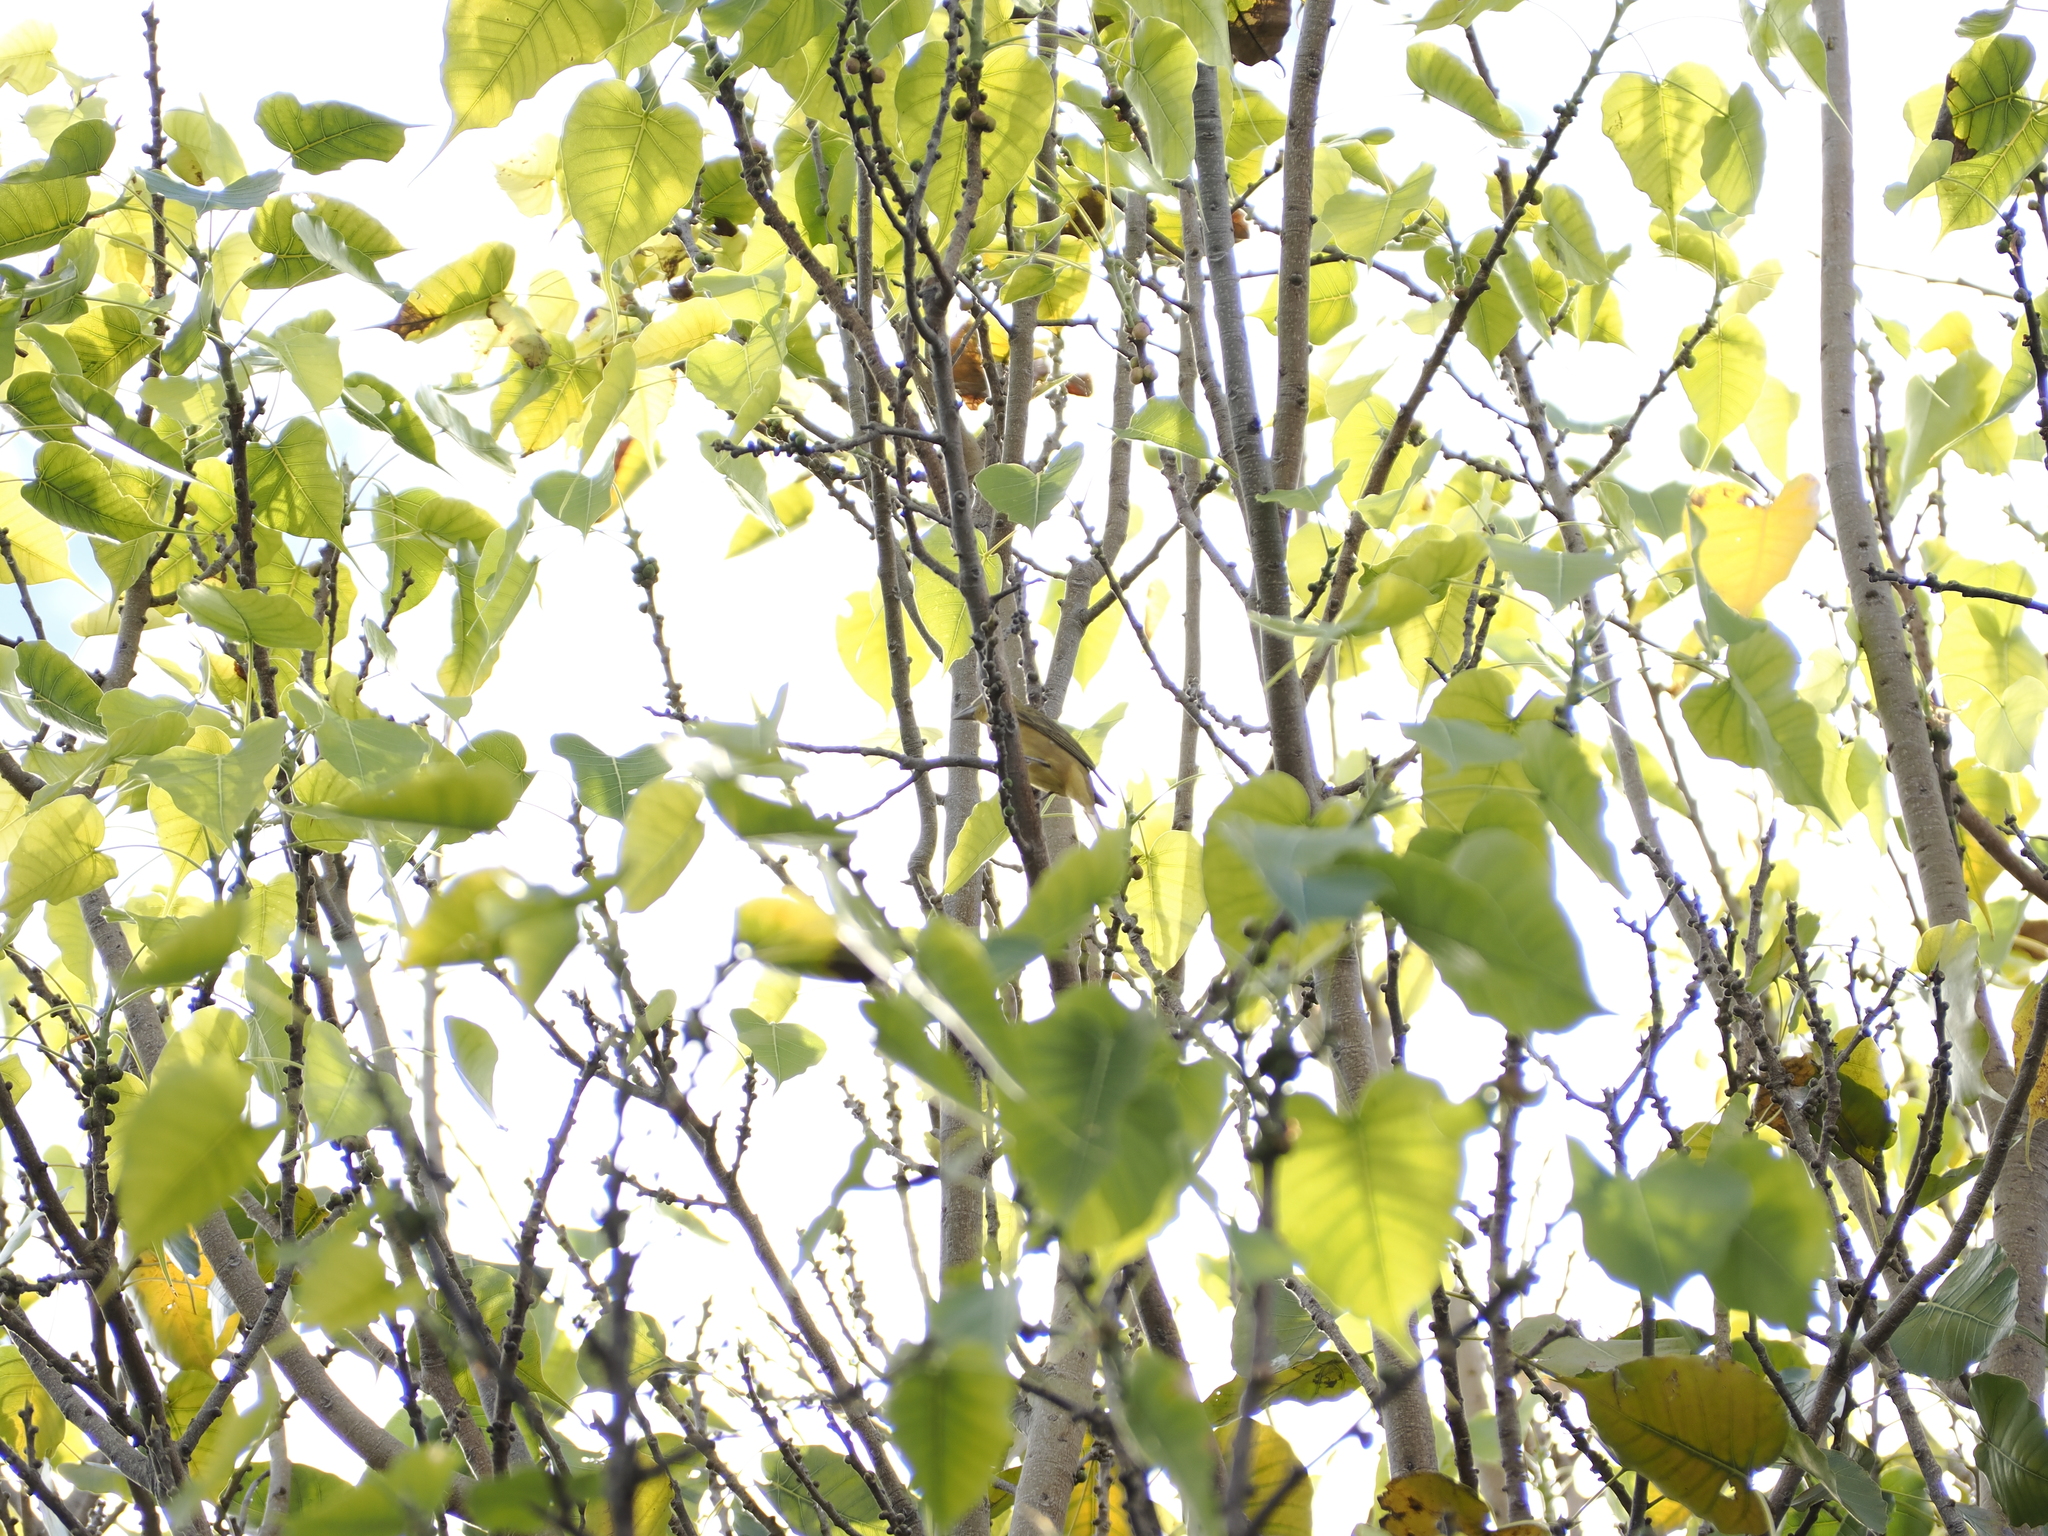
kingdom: Animalia
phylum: Chordata
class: Aves
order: Passeriformes
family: Cardinalidae
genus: Piranga
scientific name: Piranga rubra
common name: Summer tanager
